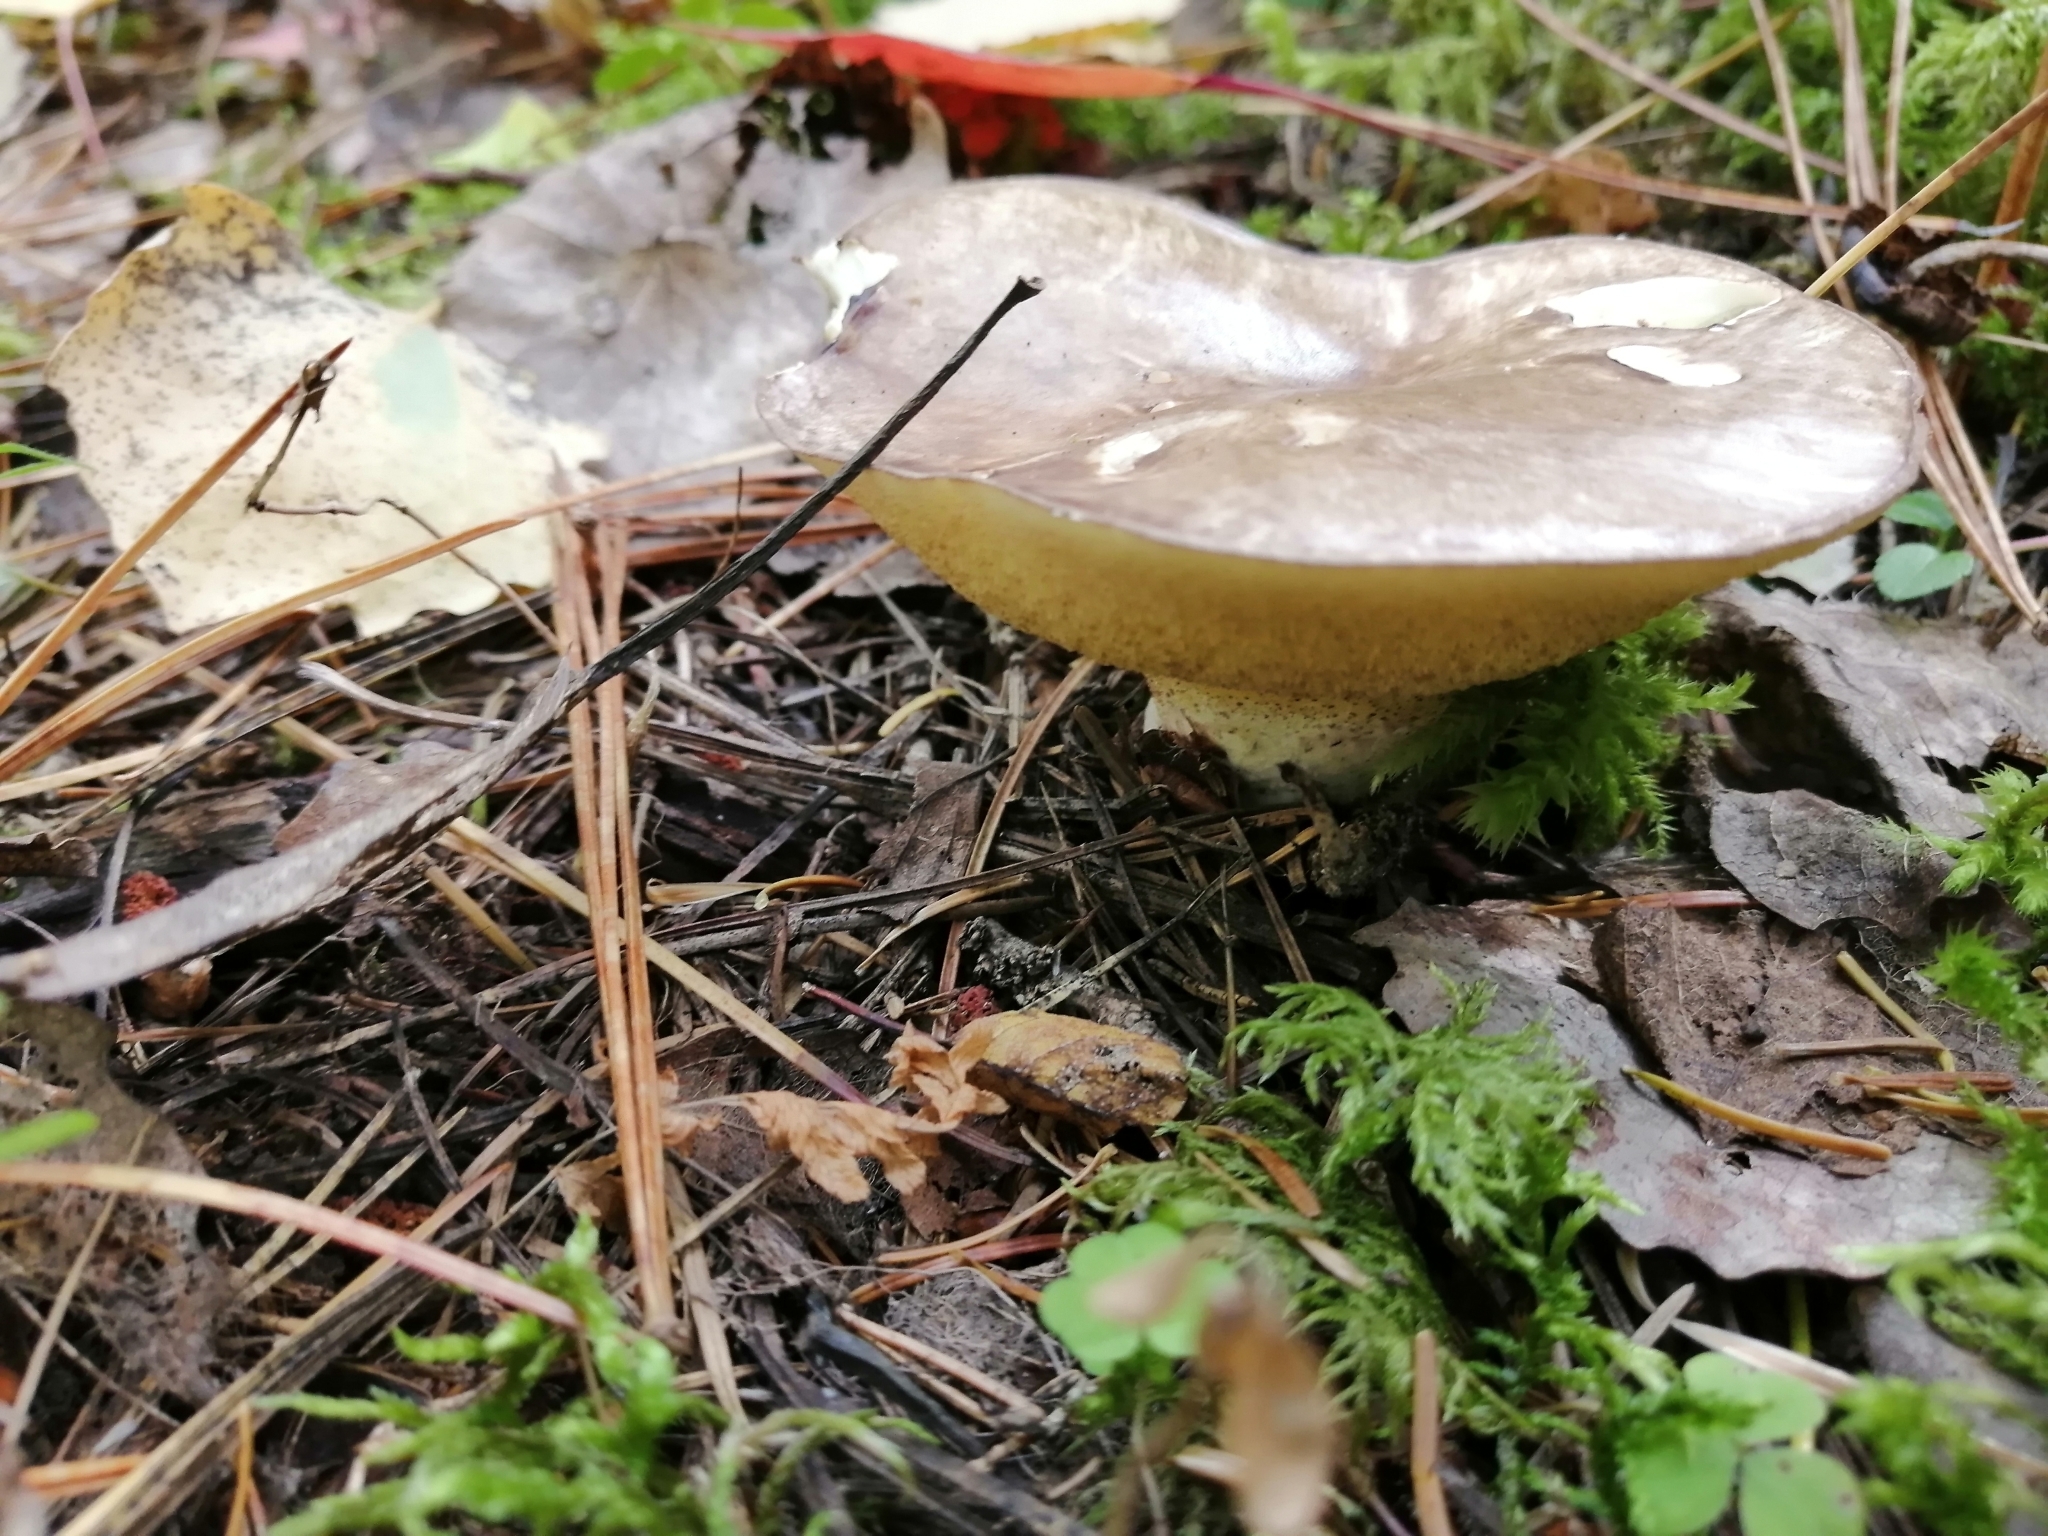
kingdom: Fungi
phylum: Basidiomycota
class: Agaricomycetes
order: Boletales
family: Suillaceae
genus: Suillus
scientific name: Suillus placidus
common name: Slippery white bolete
